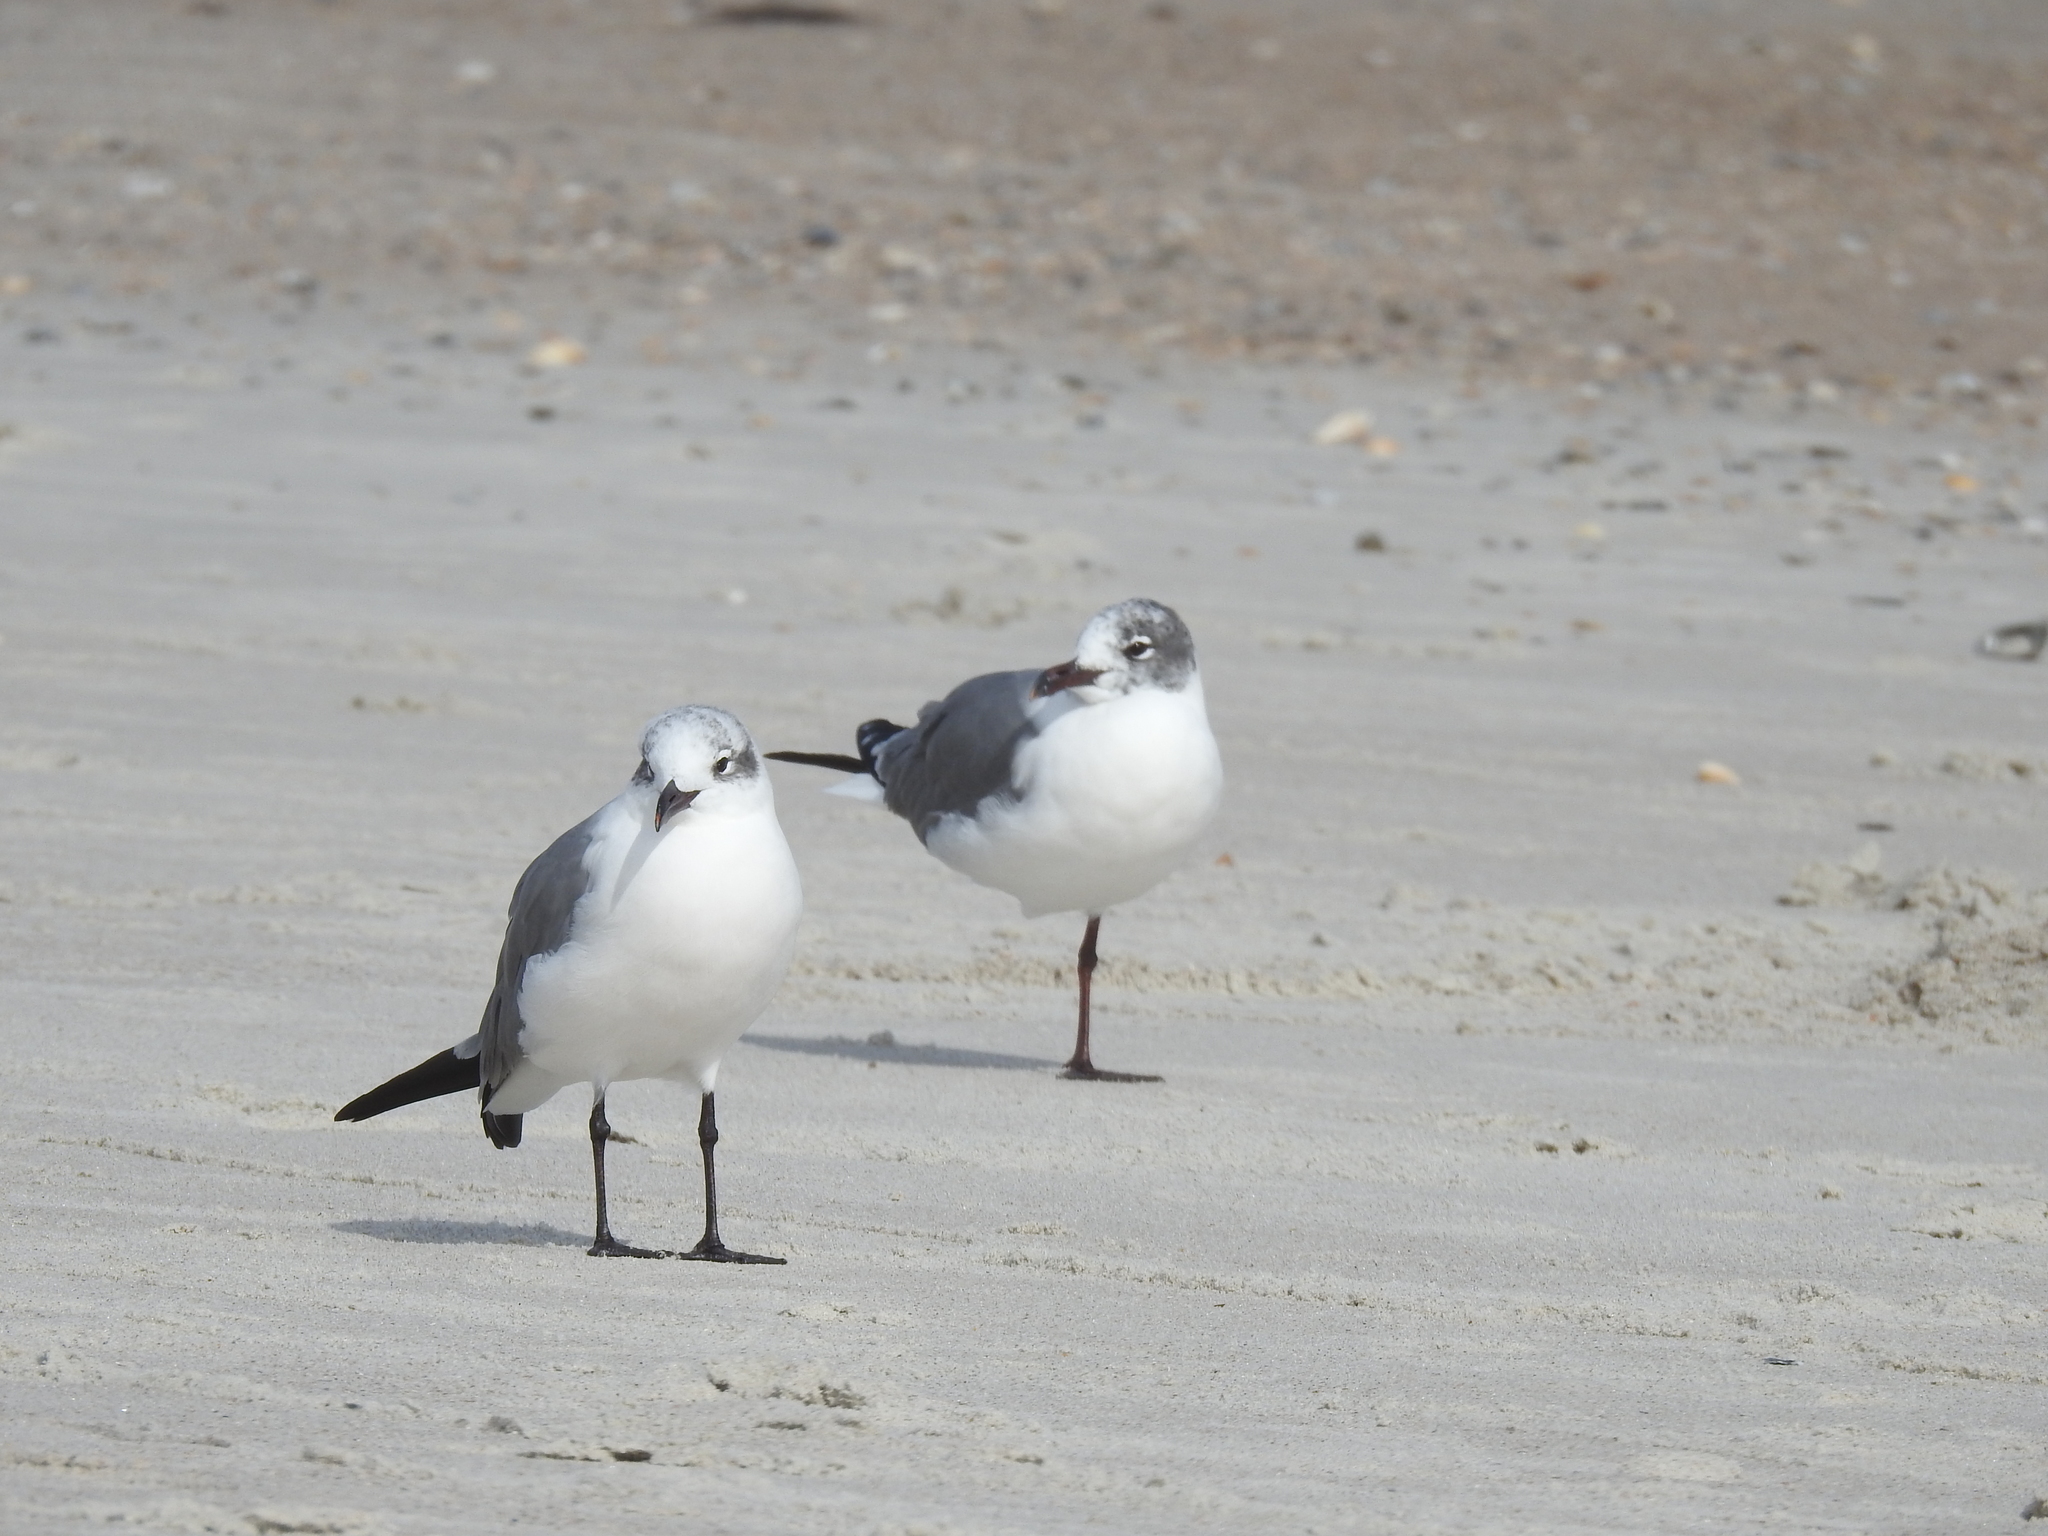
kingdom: Animalia
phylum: Chordata
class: Aves
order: Charadriiformes
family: Laridae
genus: Leucophaeus
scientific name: Leucophaeus atricilla
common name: Laughing gull
